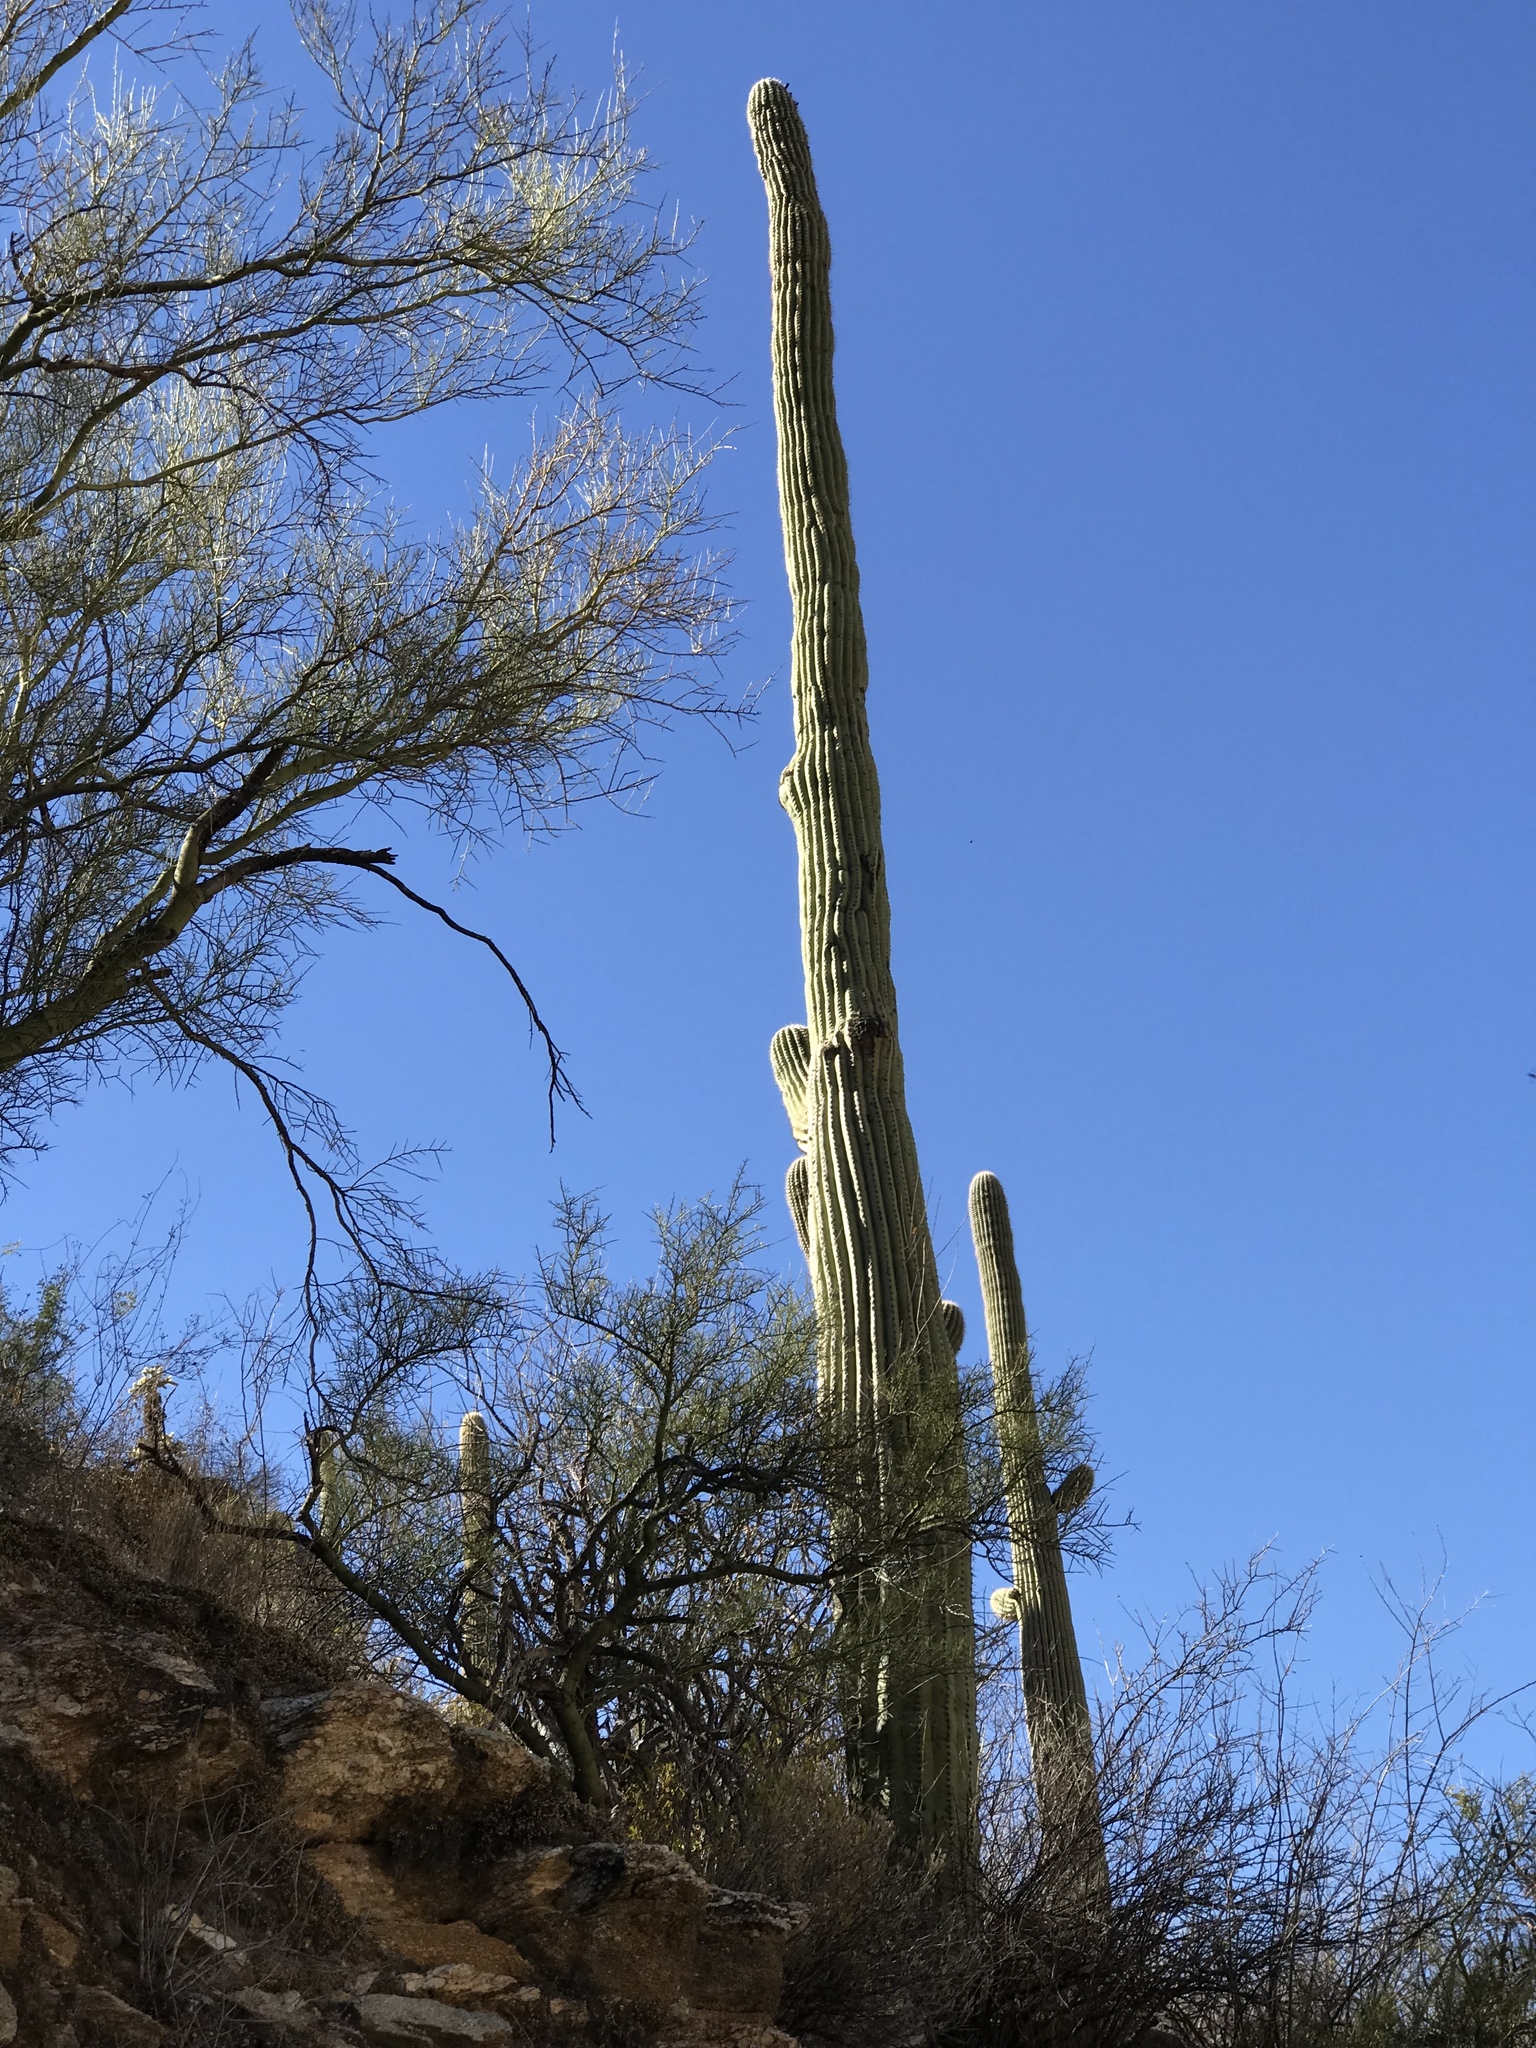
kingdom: Plantae
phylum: Tracheophyta
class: Magnoliopsida
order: Caryophyllales
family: Cactaceae
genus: Carnegiea
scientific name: Carnegiea gigantea
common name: Saguaro
